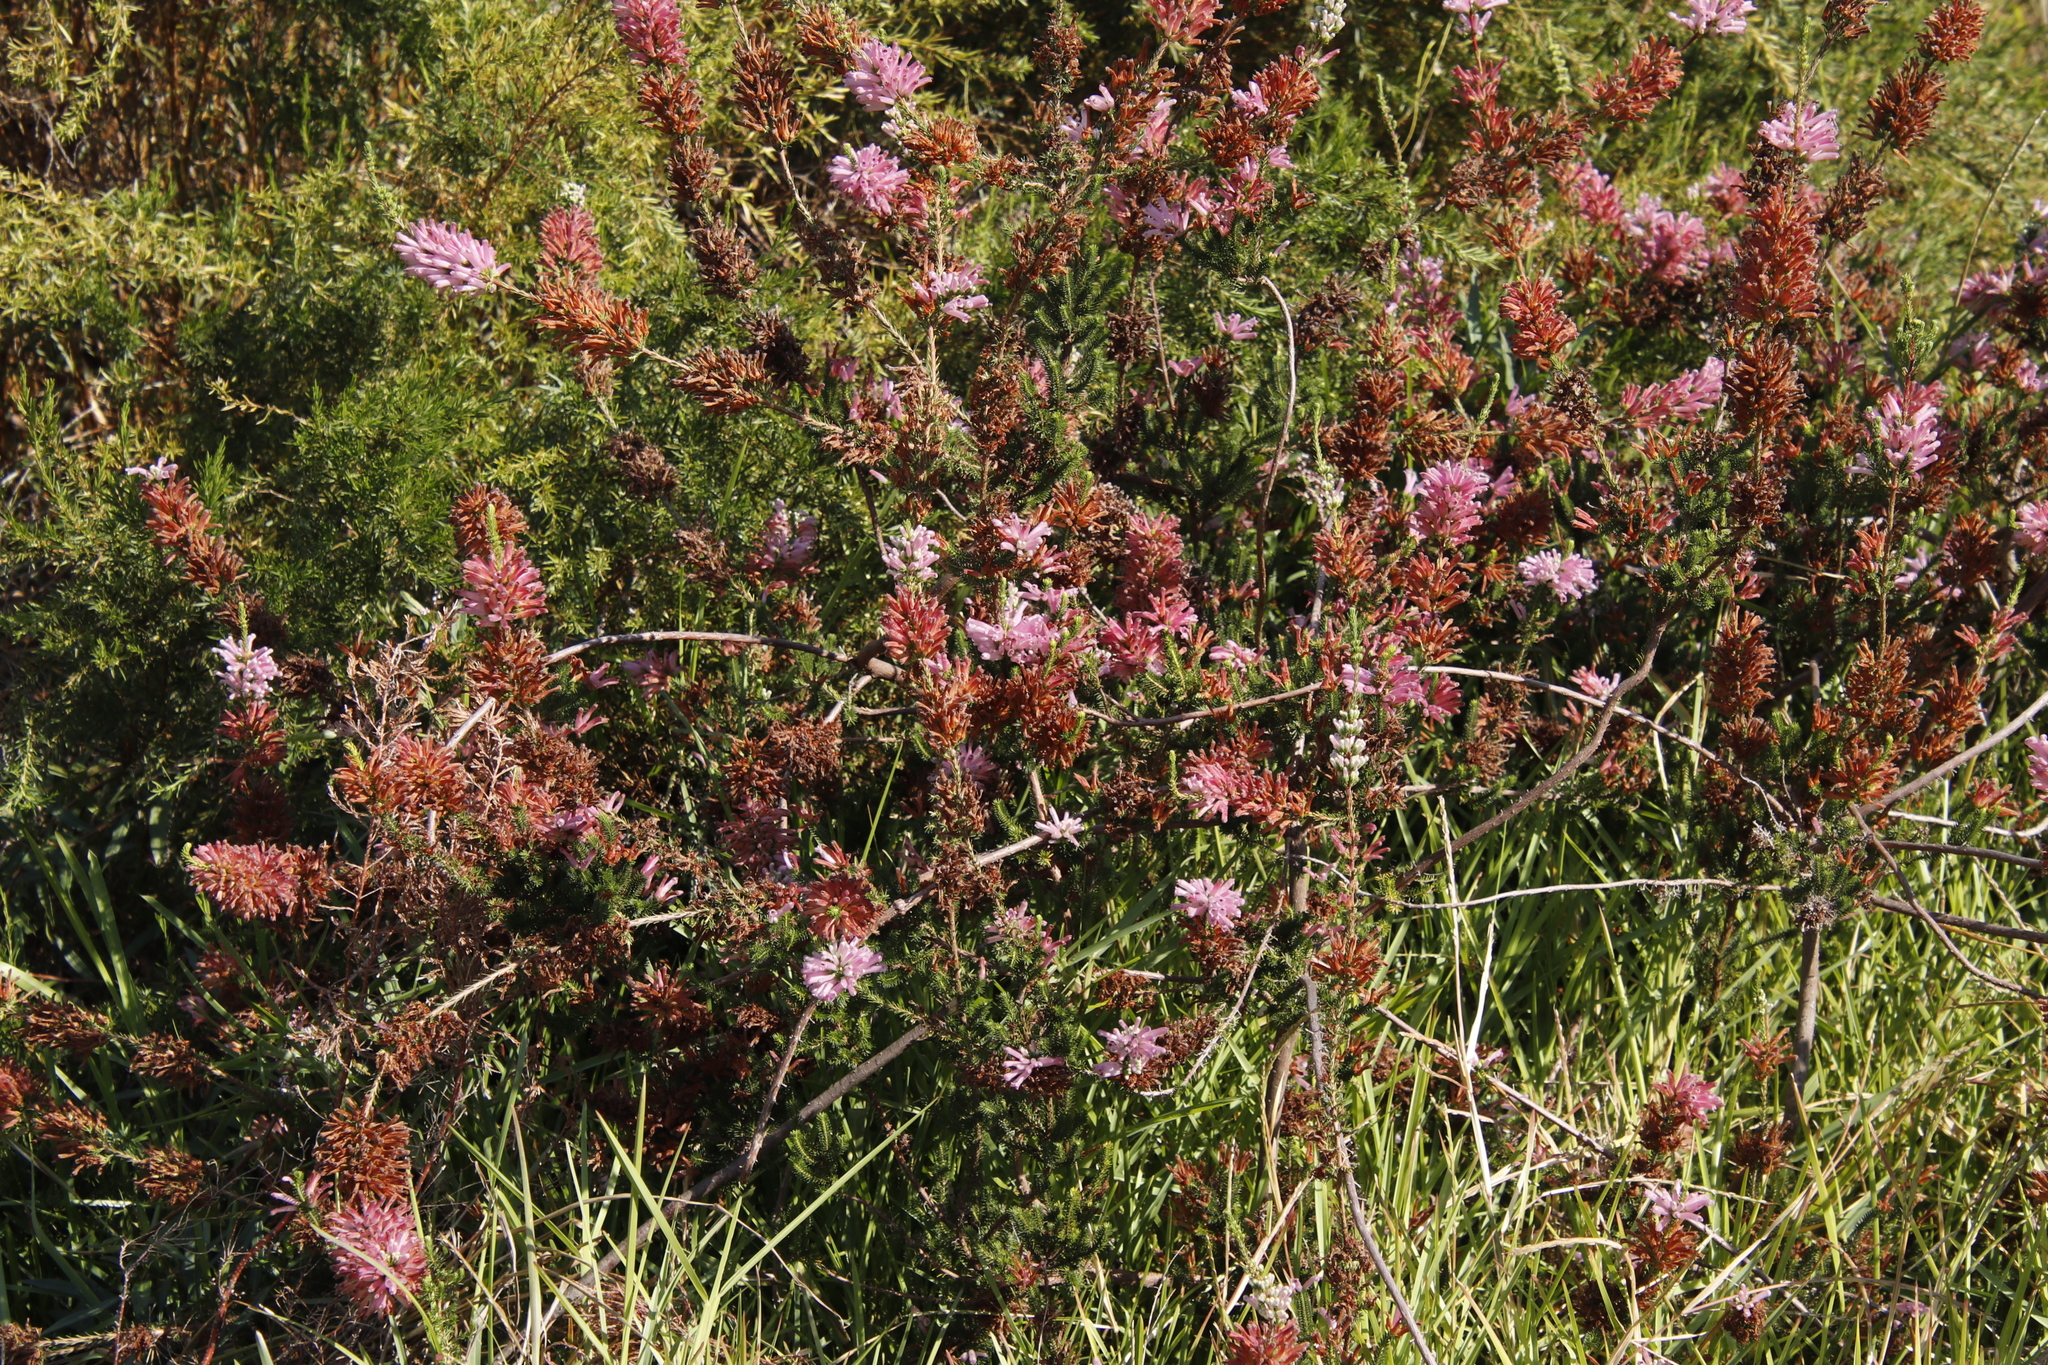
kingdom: Plantae
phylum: Tracheophyta
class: Magnoliopsida
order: Ericales
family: Ericaceae
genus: Erica
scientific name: Erica verticillata
